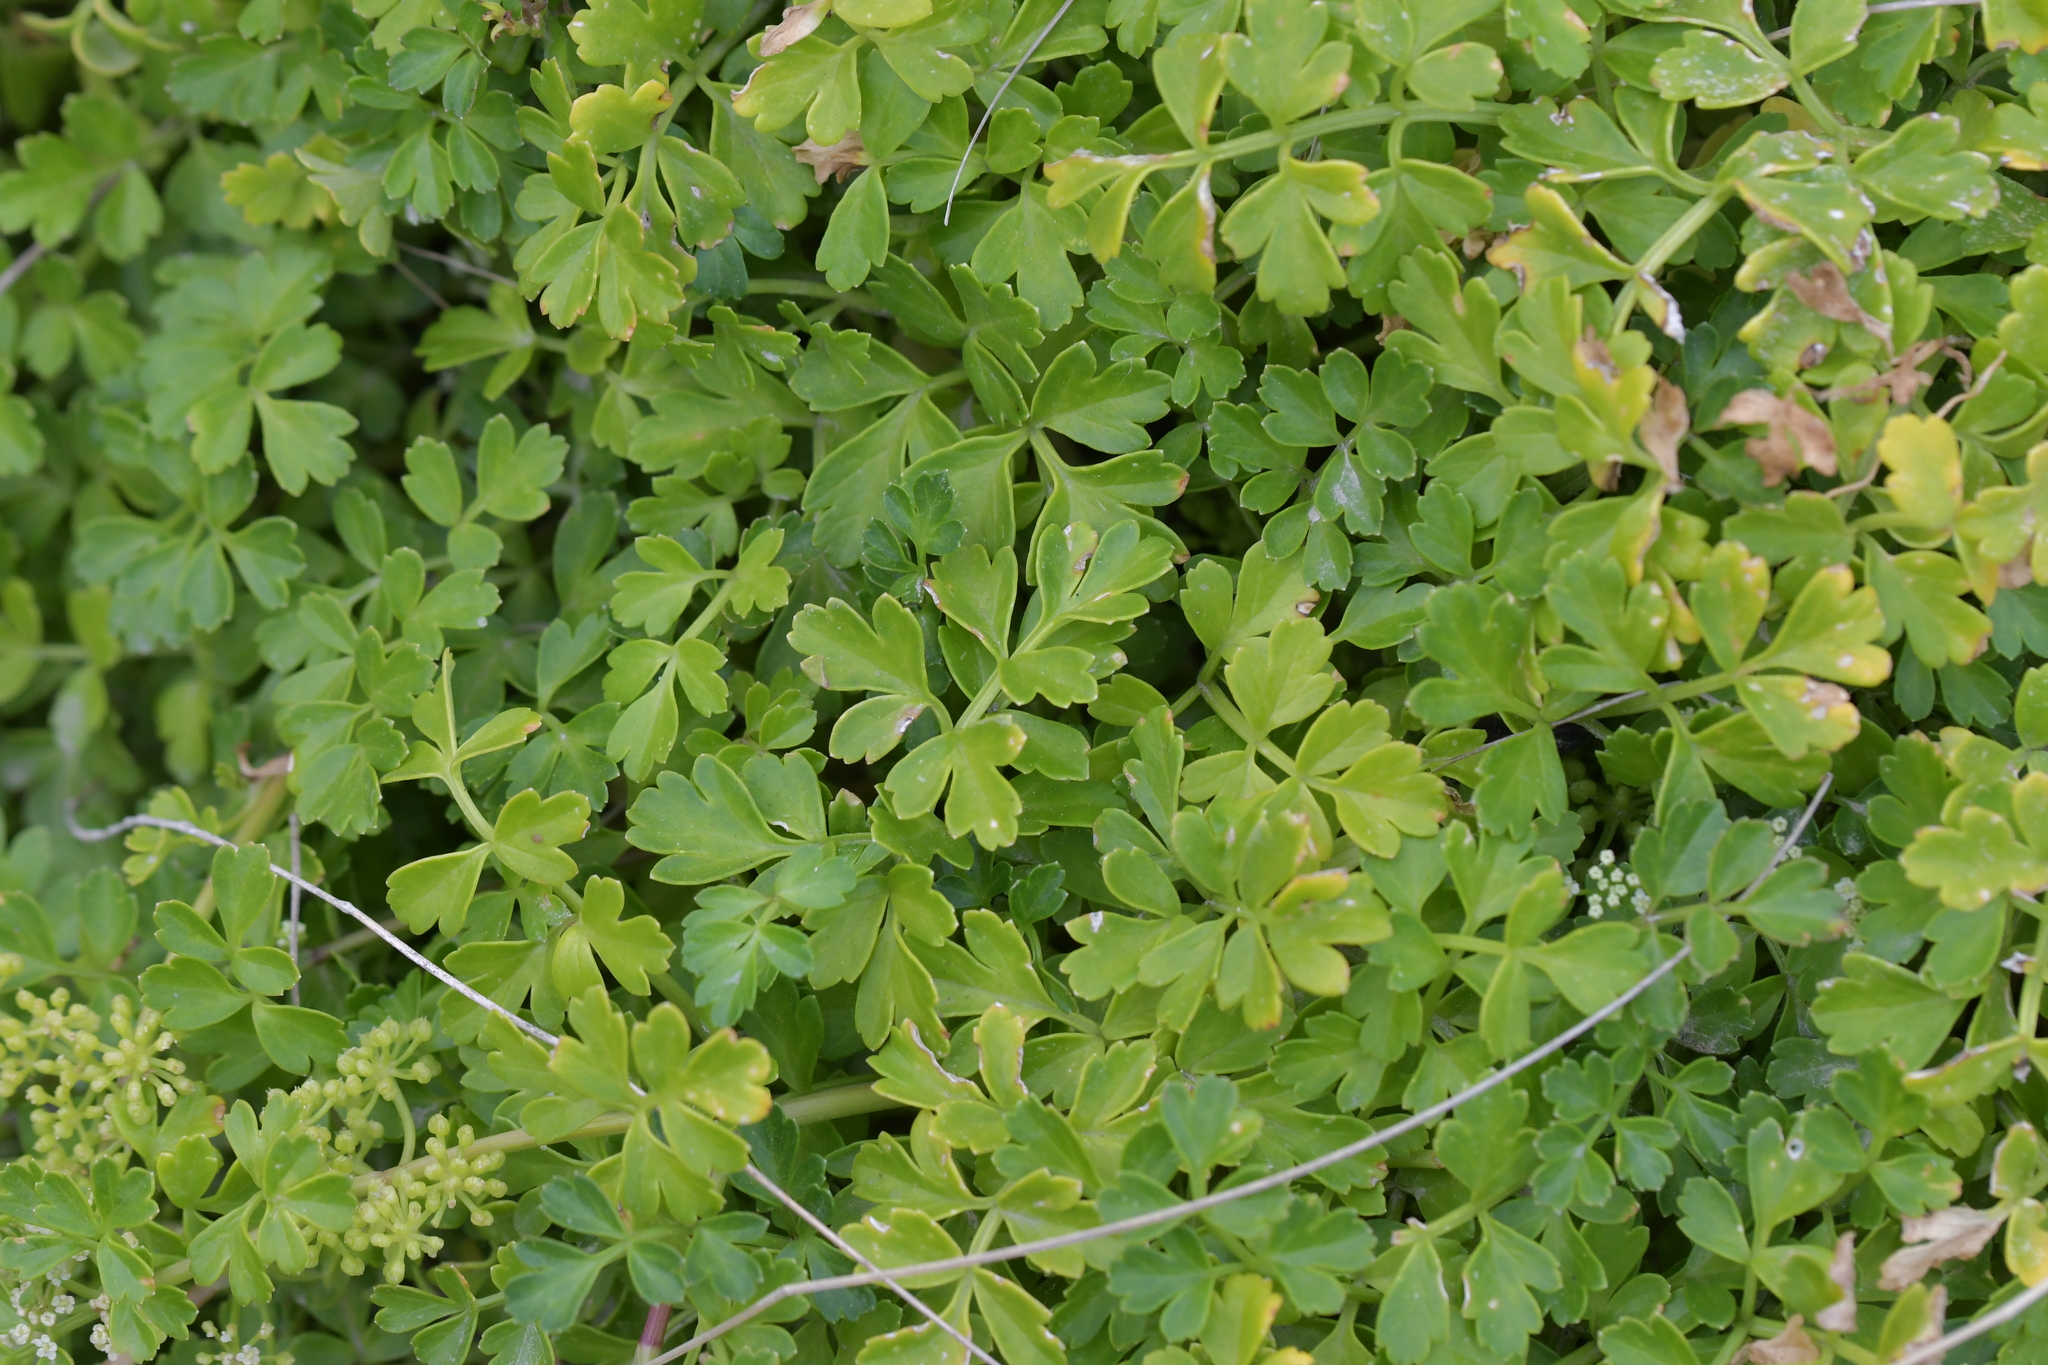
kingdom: Plantae
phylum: Tracheophyta
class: Magnoliopsida
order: Apiales
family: Apiaceae
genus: Apium
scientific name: Apium prostratum
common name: Prostrate marshwort
